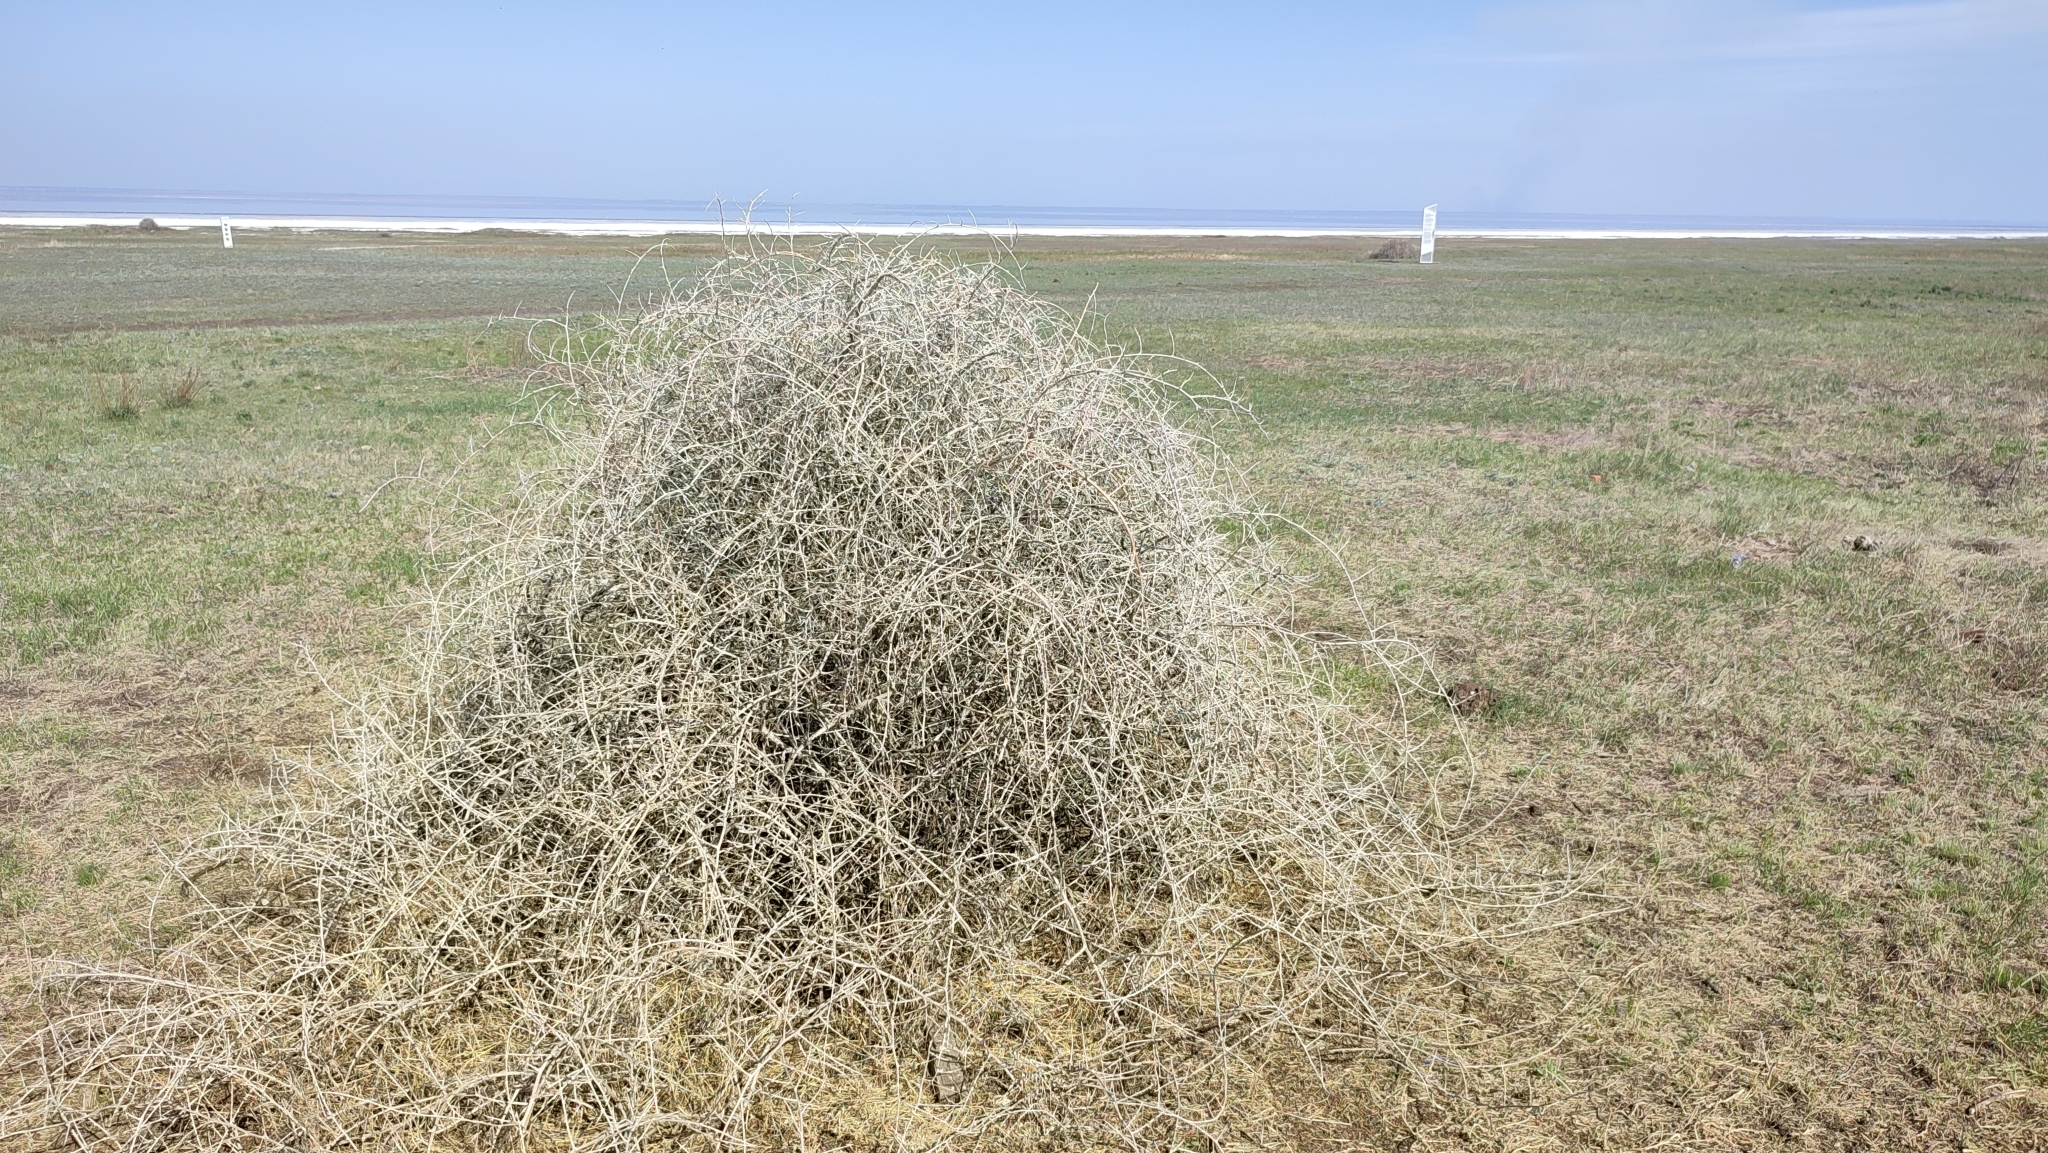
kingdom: Plantae
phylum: Tracheophyta
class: Magnoliopsida
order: Sapindales
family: Nitrariaceae
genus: Nitraria
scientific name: Nitraria schoberi
